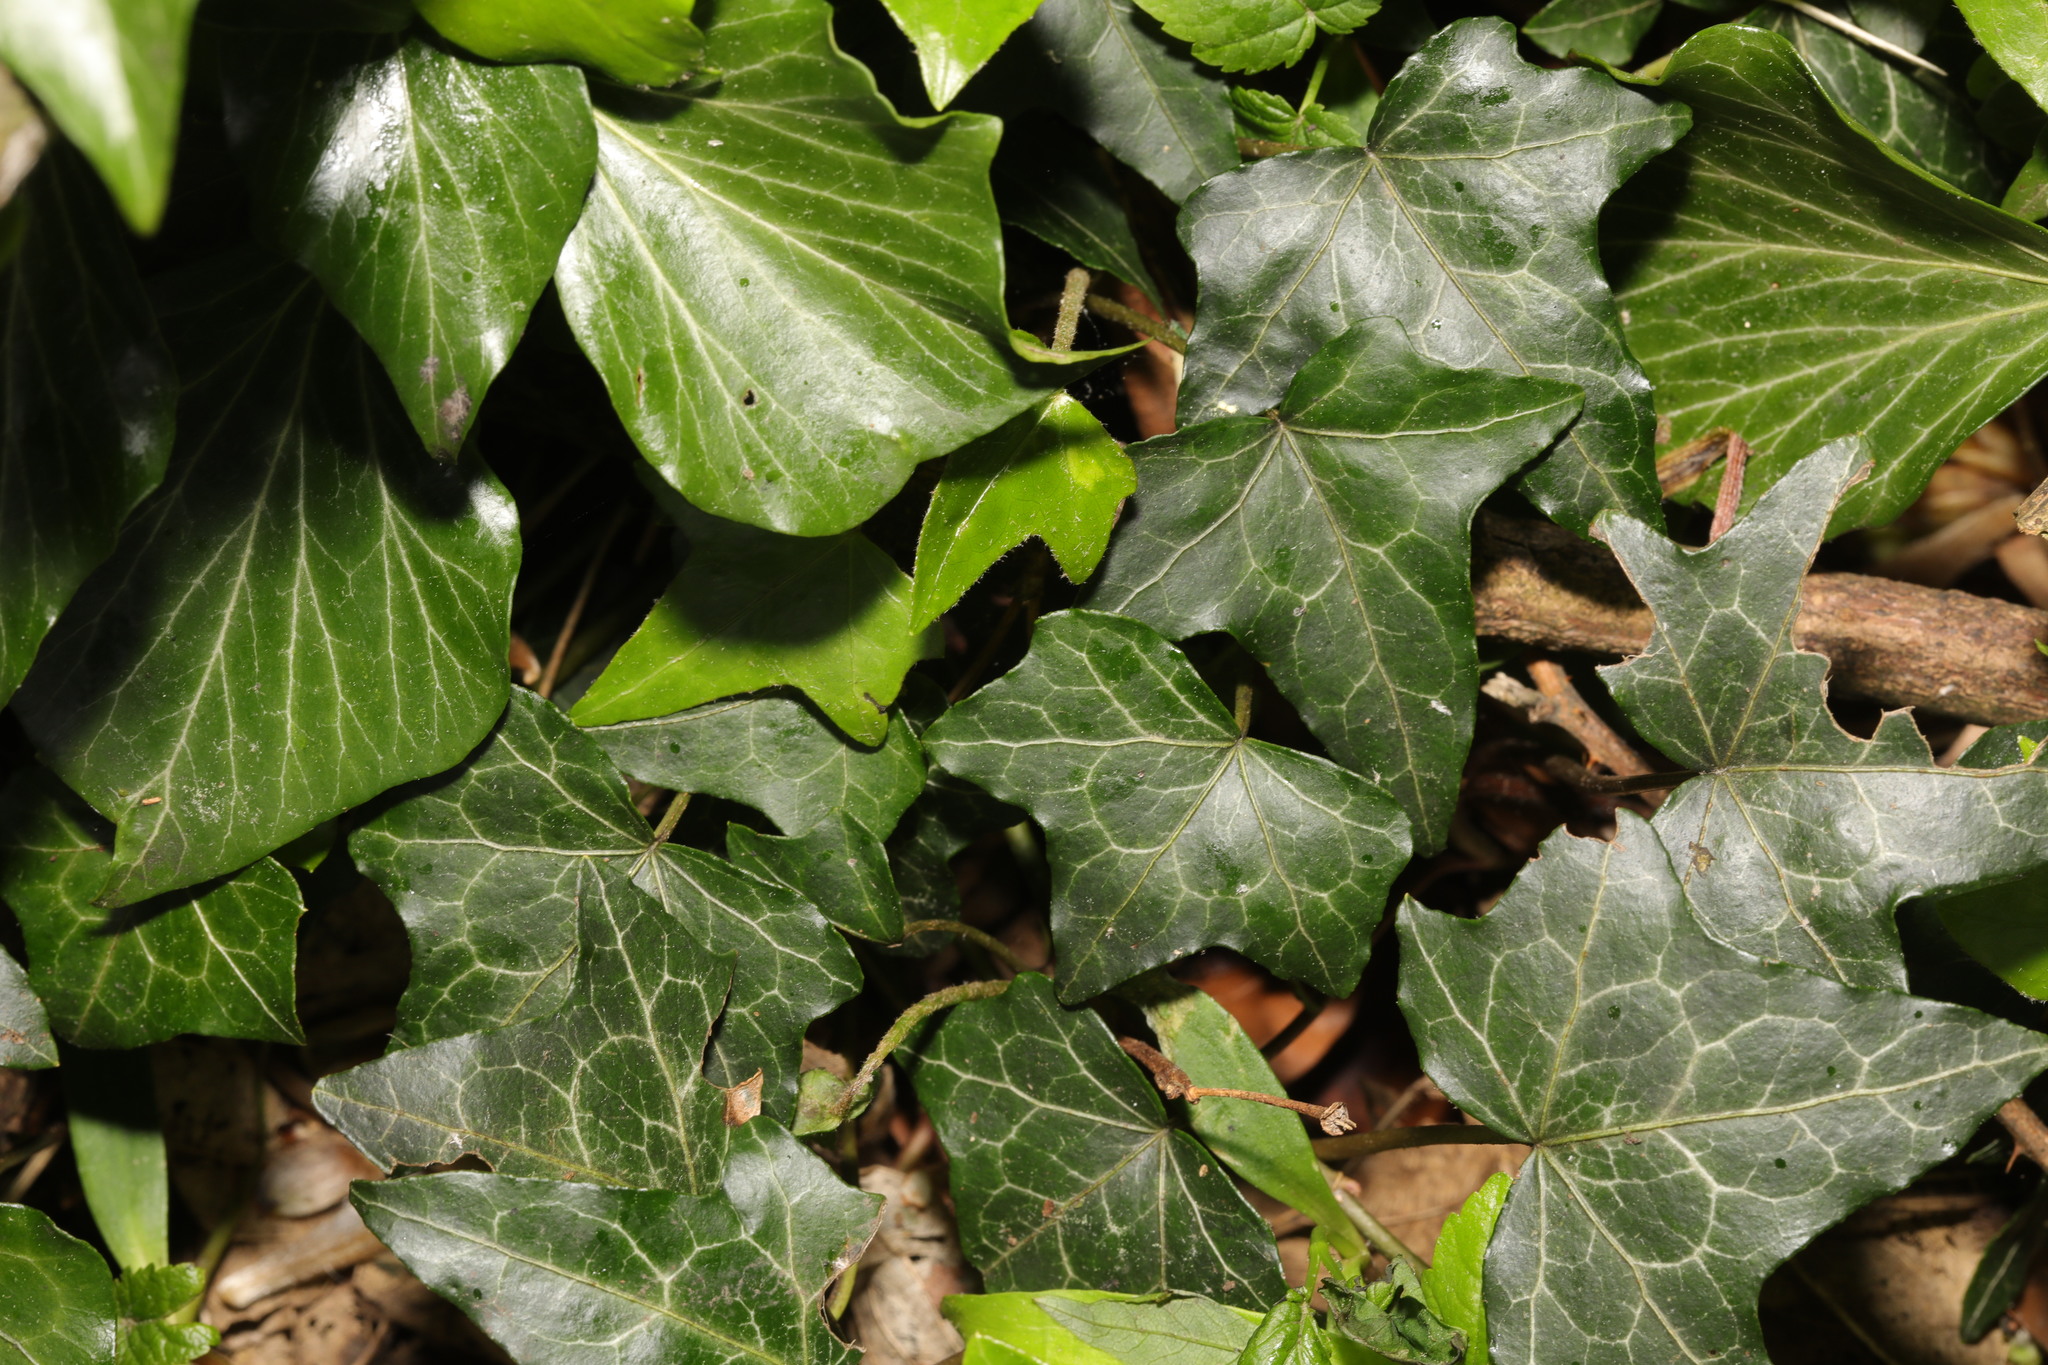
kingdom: Plantae
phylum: Tracheophyta
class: Magnoliopsida
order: Apiales
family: Araliaceae
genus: Hedera
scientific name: Hedera helix
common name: Ivy
